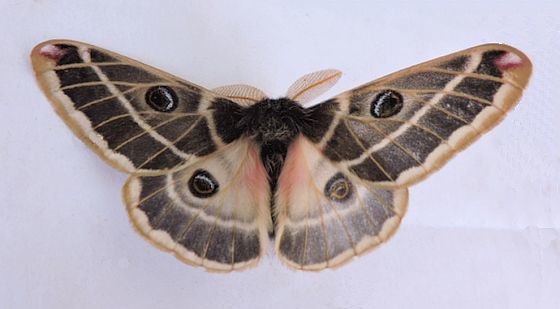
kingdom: Animalia
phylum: Arthropoda
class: Insecta
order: Lepidoptera
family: Saturniidae
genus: Agapema
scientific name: Agapema homogena
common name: Rocky mountain agapema
